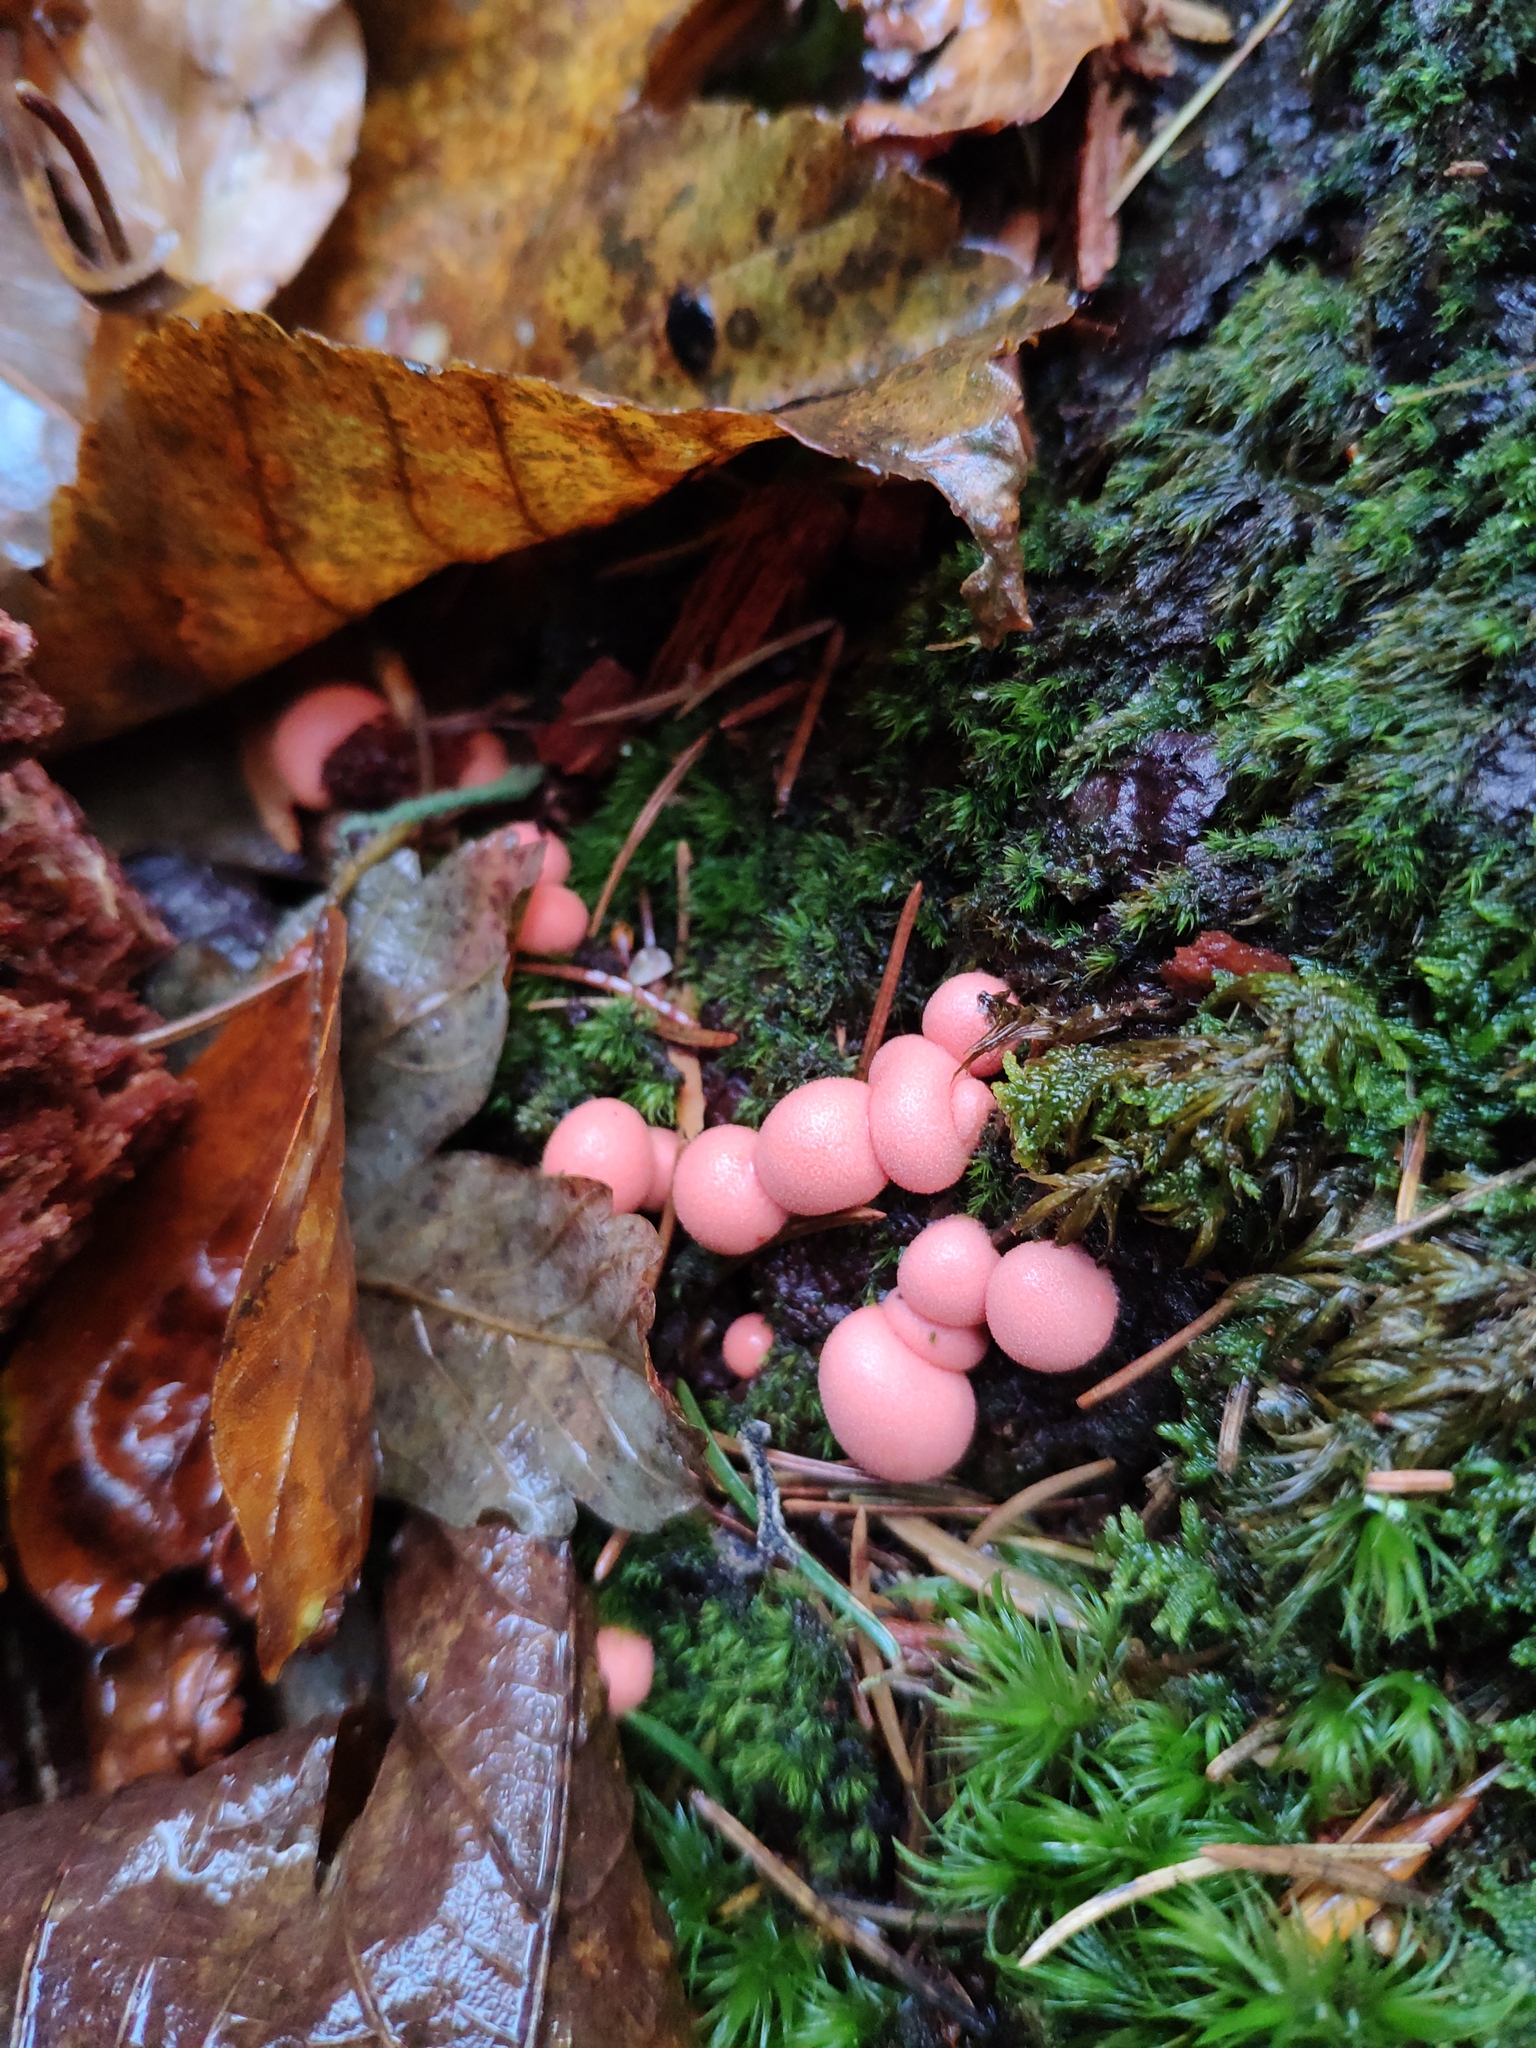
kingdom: Protozoa
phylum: Mycetozoa
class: Myxomycetes
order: Cribrariales
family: Tubiferaceae
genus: Lycogala
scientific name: Lycogala epidendrum
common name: Wolf's milk
